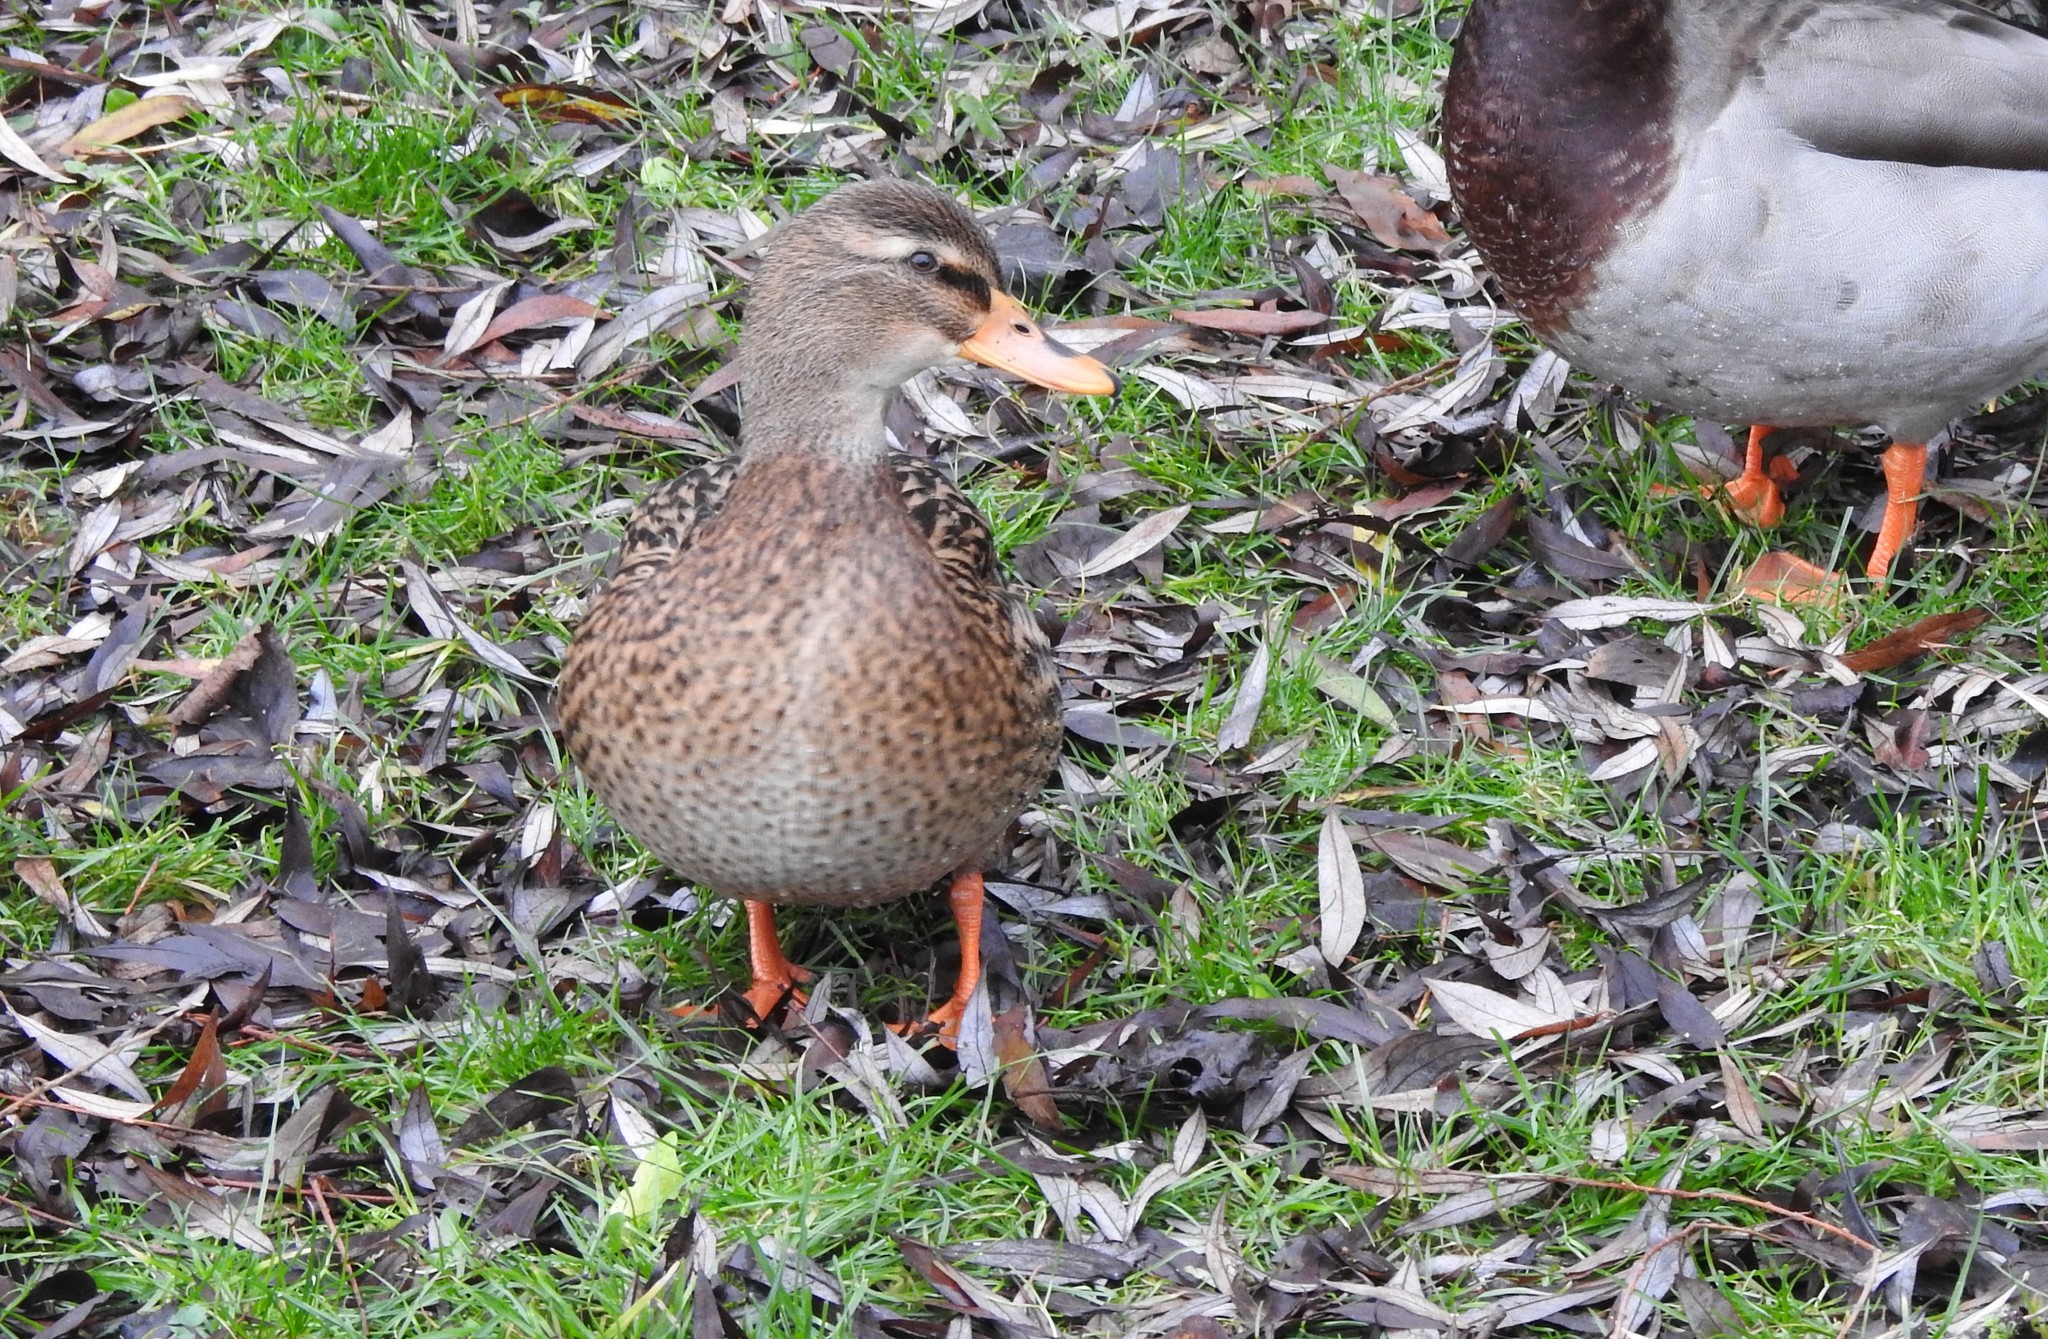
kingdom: Animalia
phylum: Chordata
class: Aves
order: Anseriformes
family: Anatidae
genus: Anas
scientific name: Anas platyrhynchos
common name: Mallard
